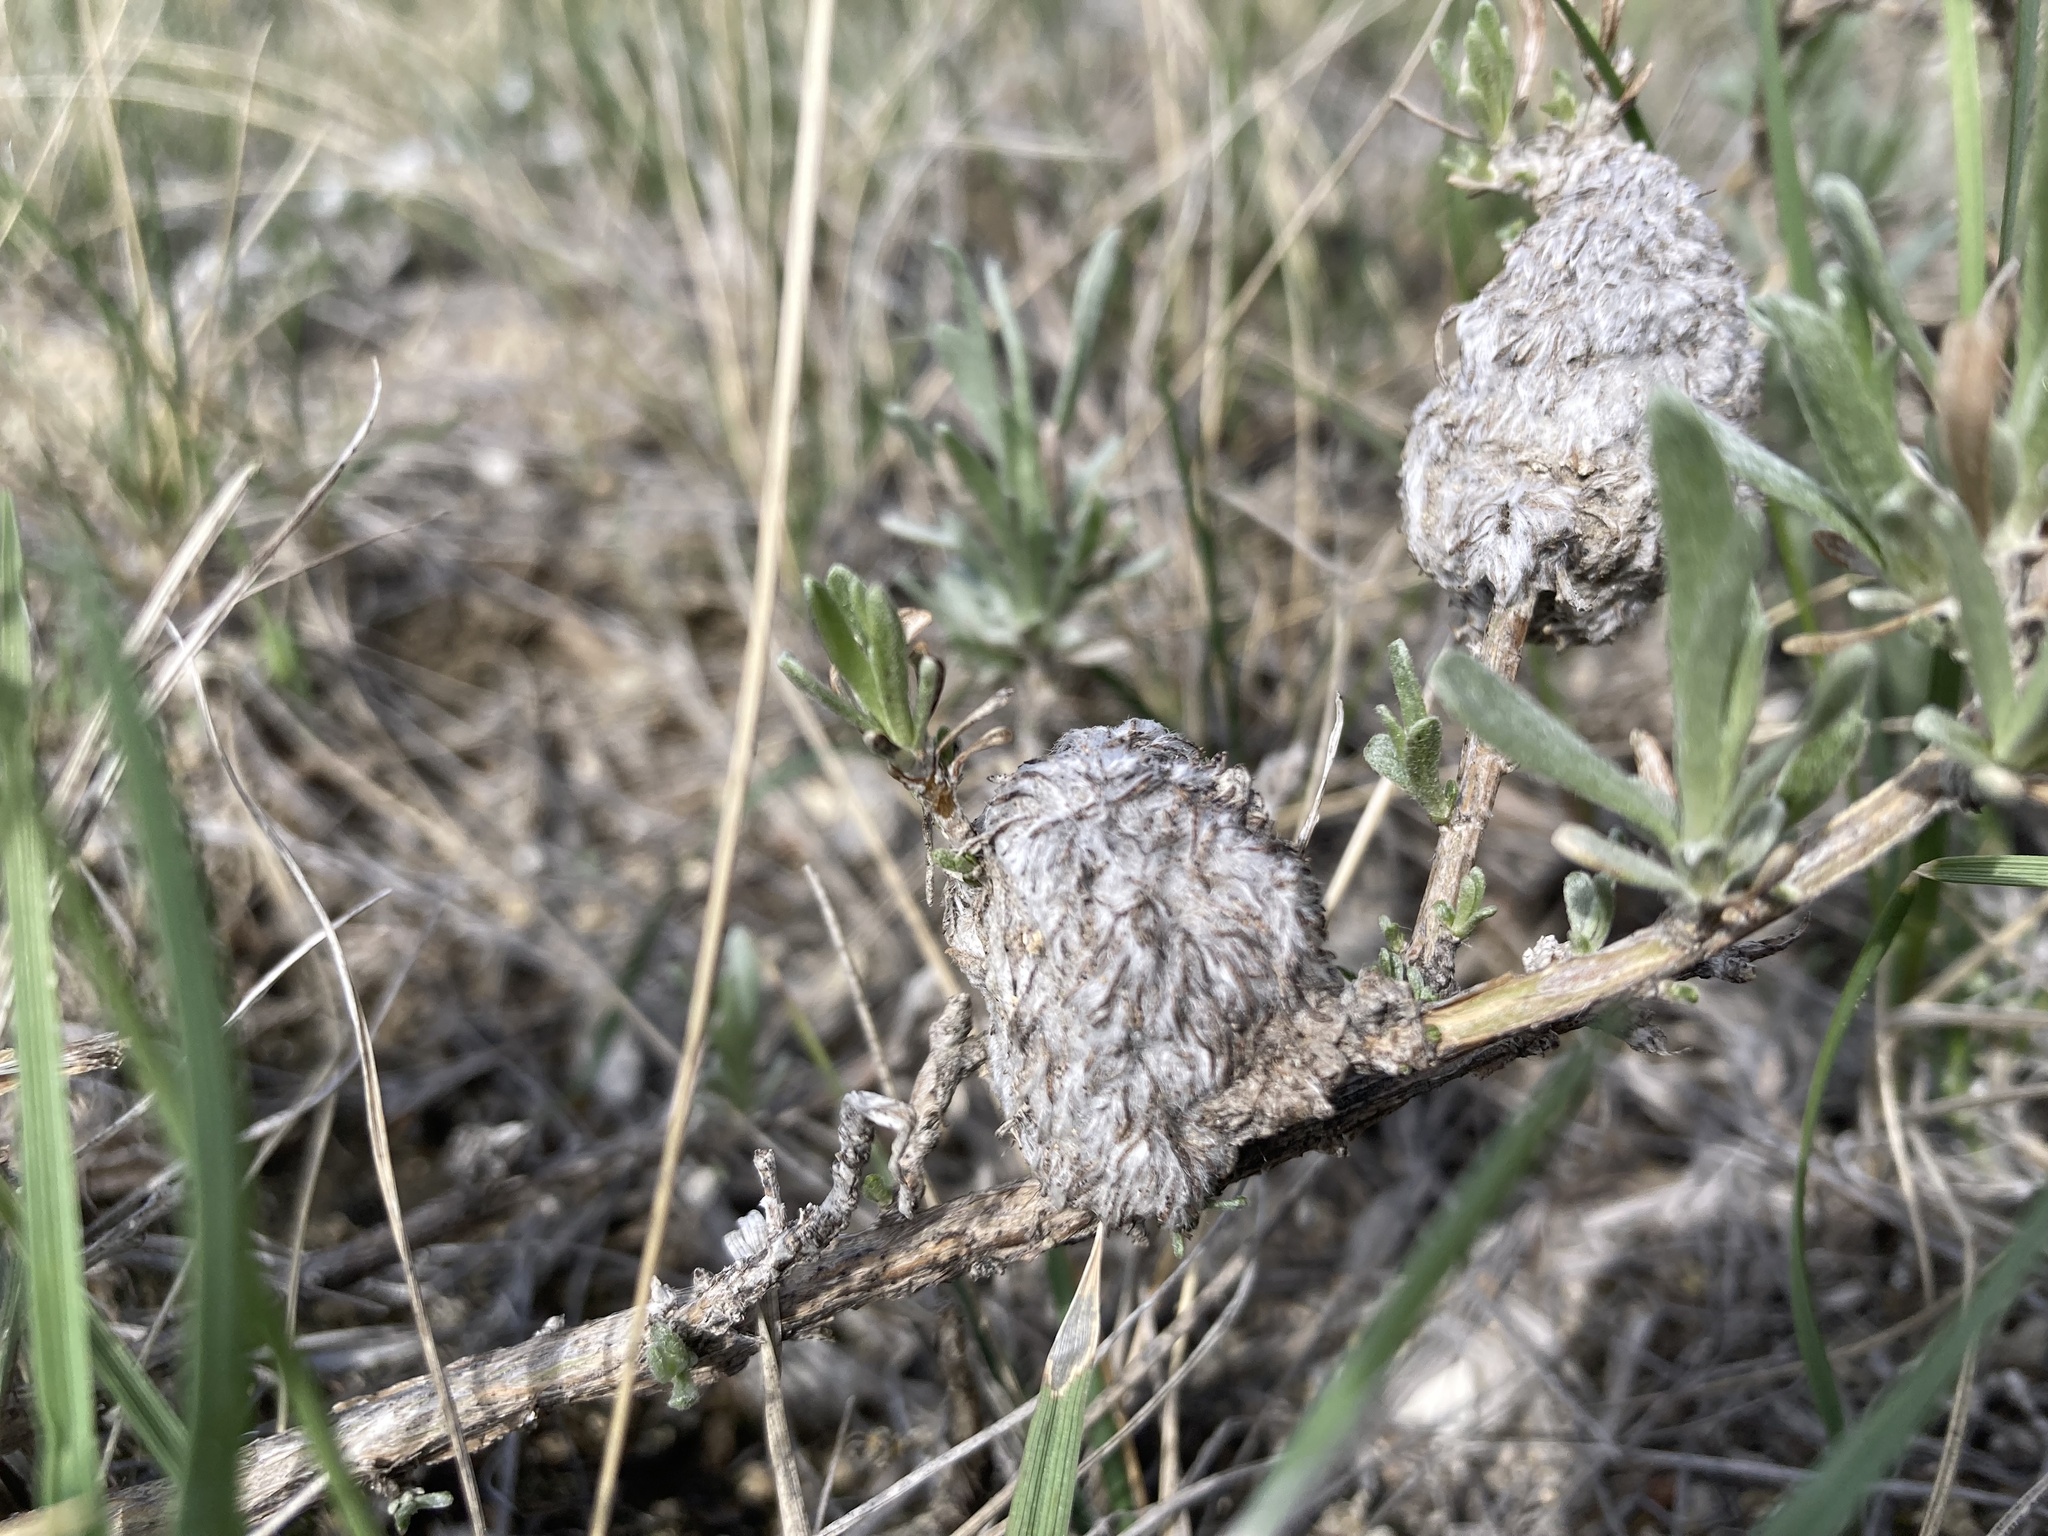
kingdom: Animalia
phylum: Arthropoda
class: Insecta
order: Diptera
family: Cecidomyiidae
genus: Rhopalomyia
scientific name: Rhopalomyia medusirrasa
